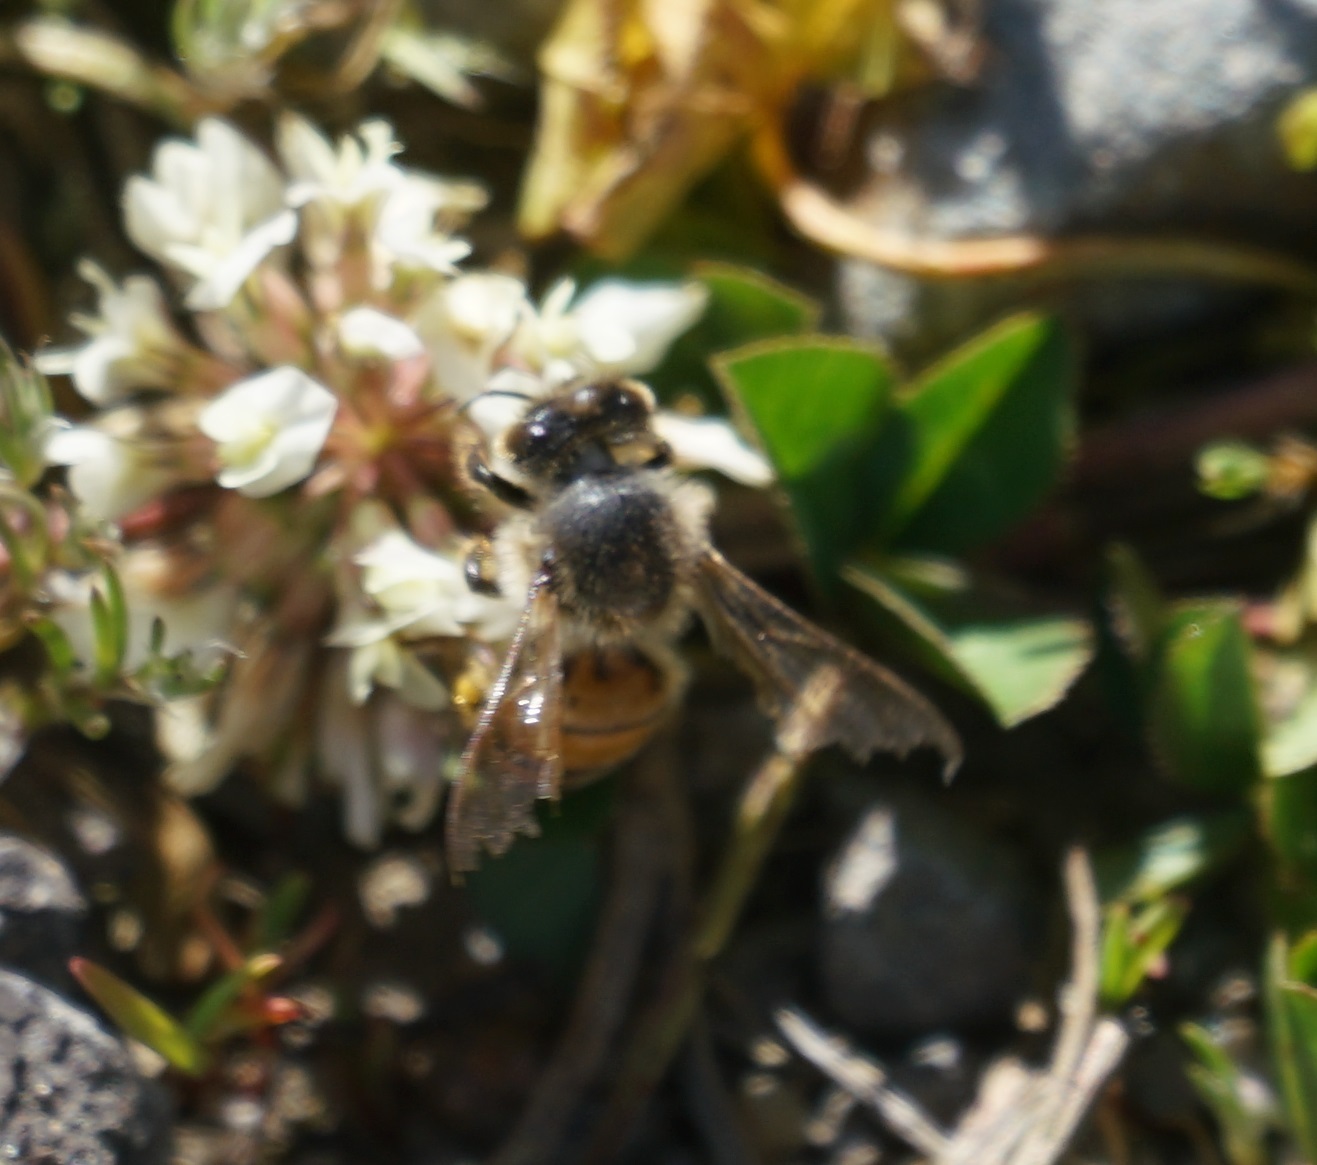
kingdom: Animalia
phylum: Arthropoda
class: Insecta
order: Hymenoptera
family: Apidae
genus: Apis
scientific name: Apis mellifera
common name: Honey bee
